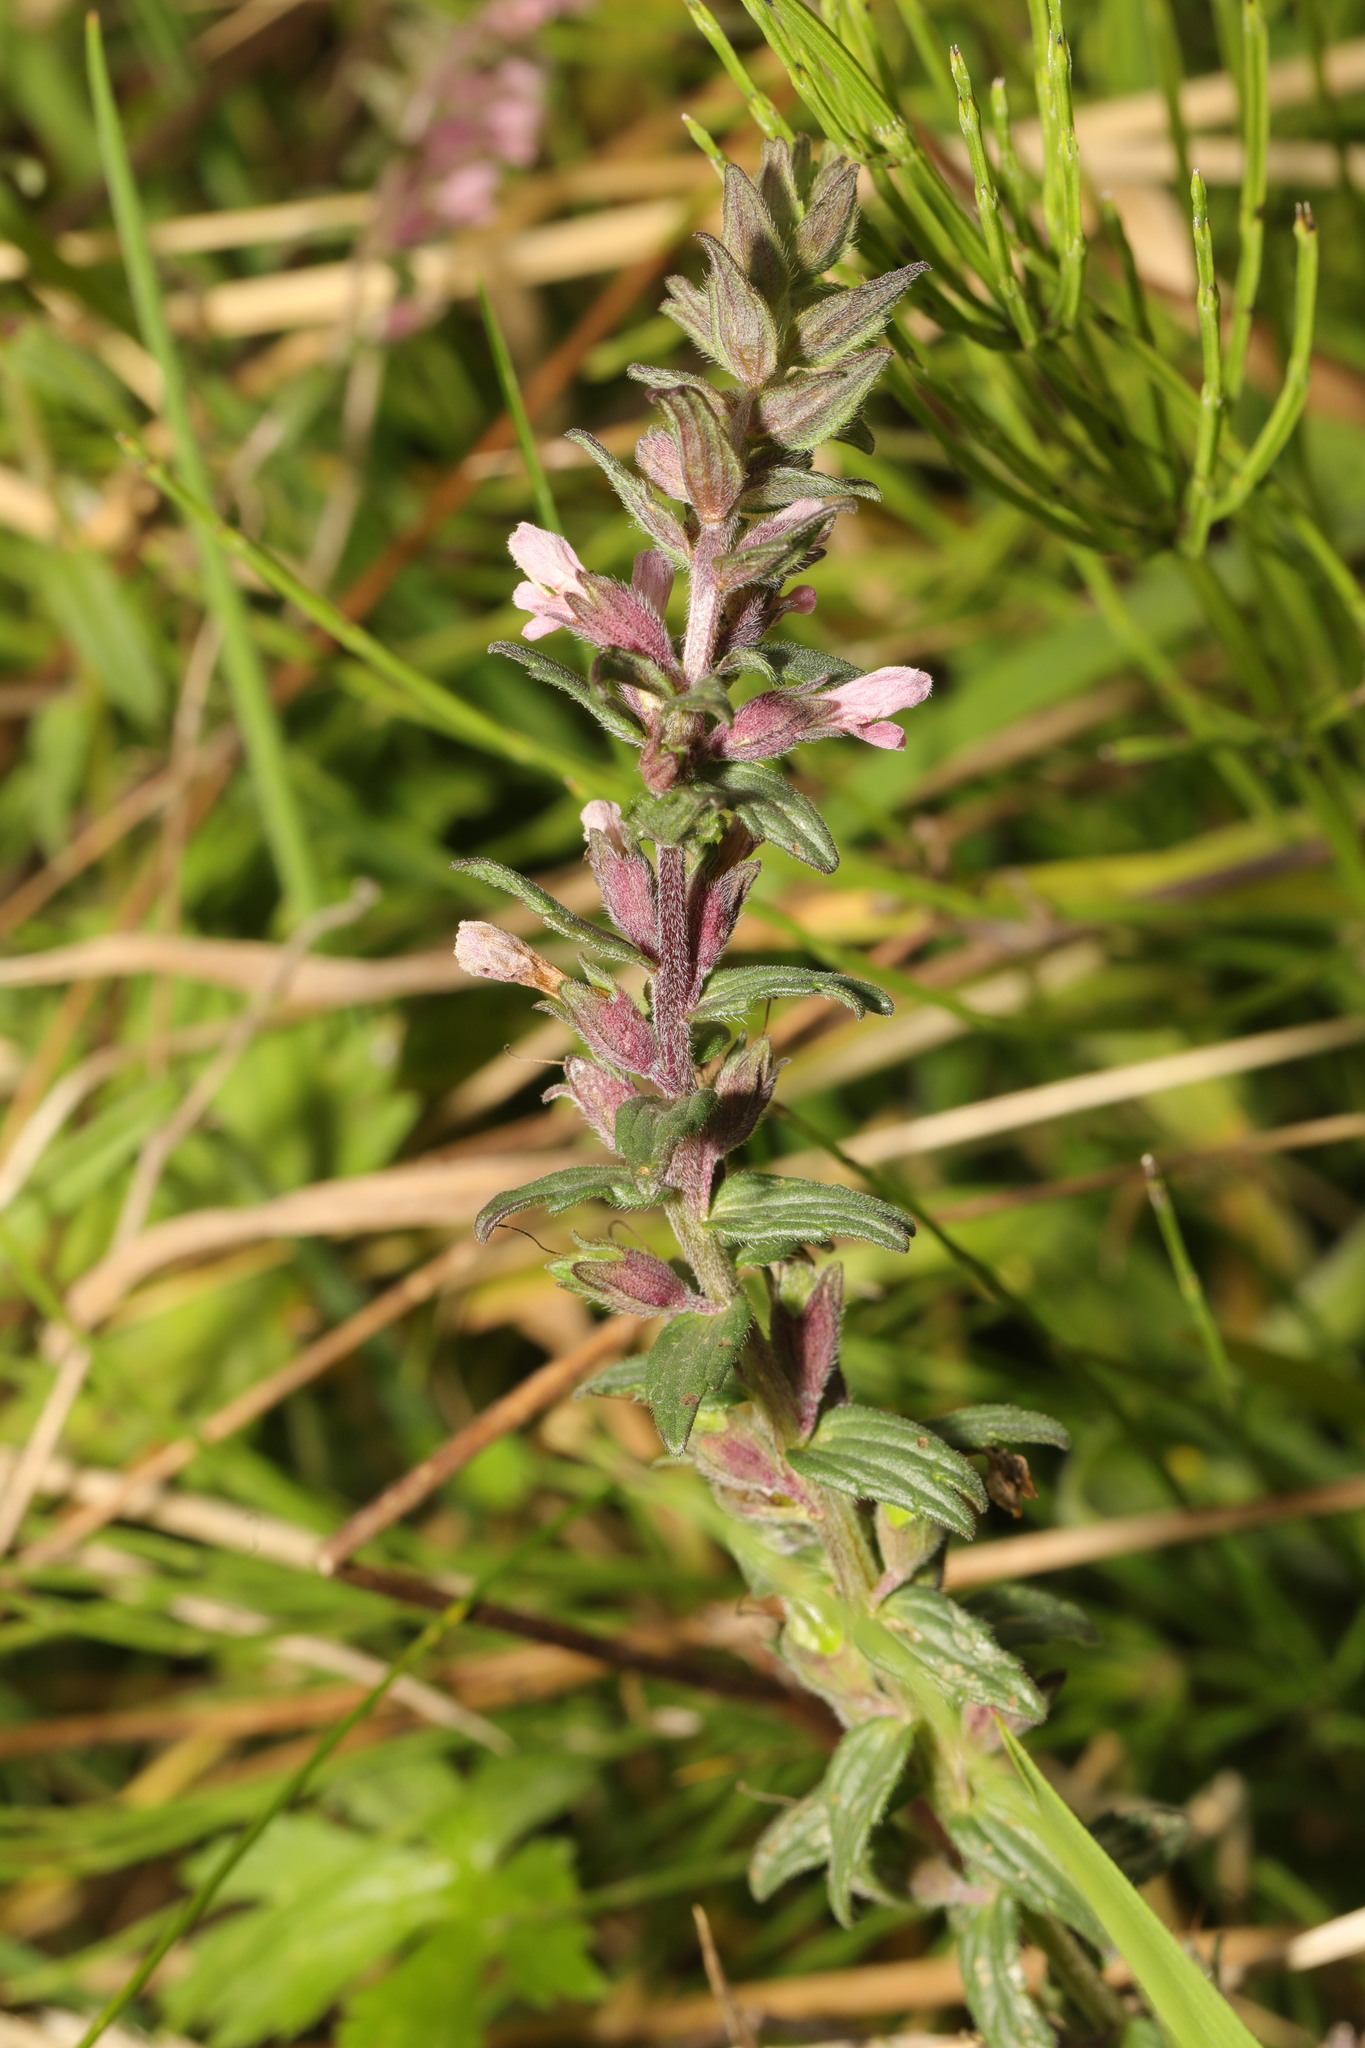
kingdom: Plantae
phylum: Tracheophyta
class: Magnoliopsida
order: Lamiales
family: Orobanchaceae
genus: Odontites
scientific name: Odontites vernus
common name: Red bartsia
